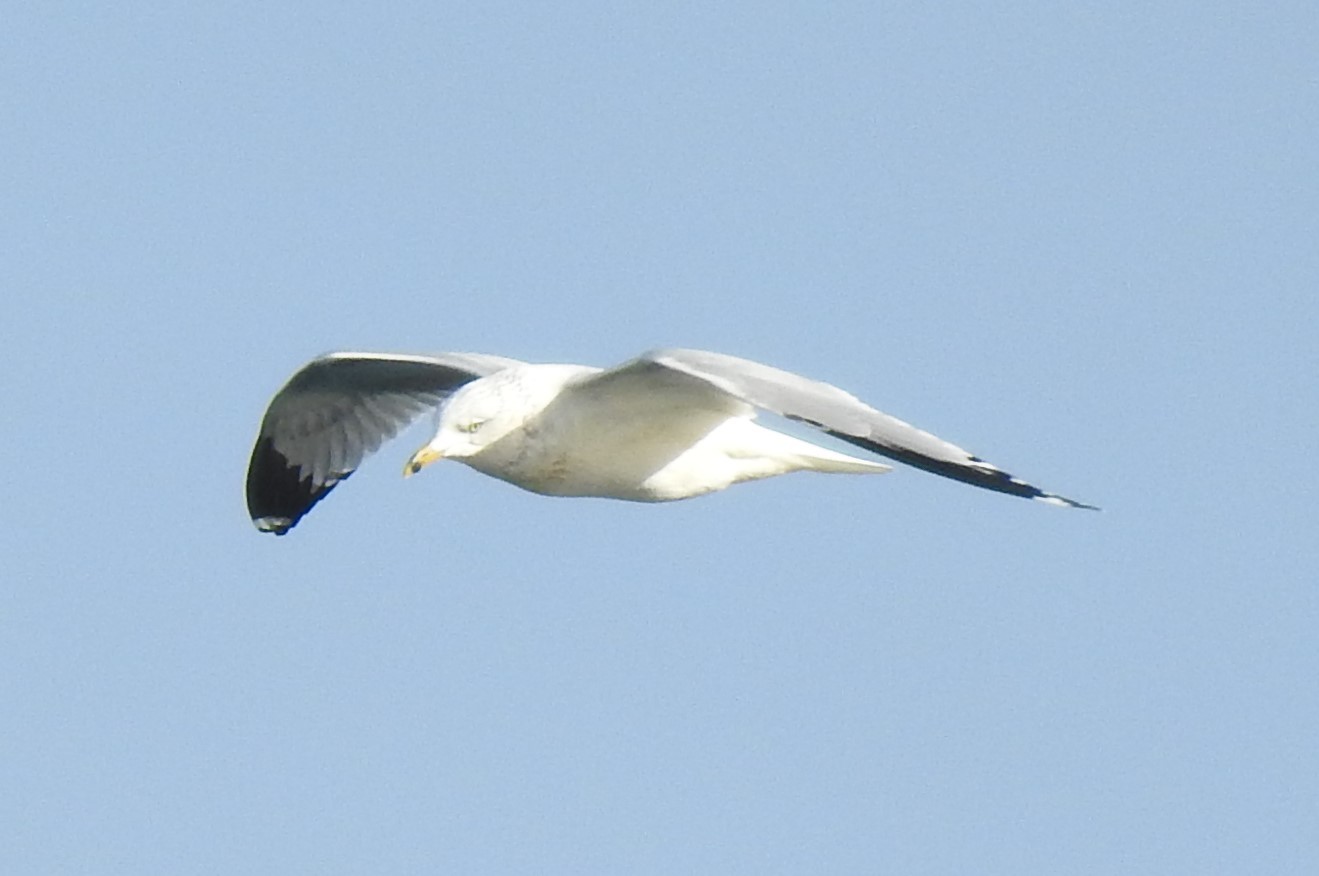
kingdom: Animalia
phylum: Chordata
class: Aves
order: Charadriiformes
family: Laridae
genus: Larus
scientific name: Larus delawarensis
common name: Ring-billed gull
